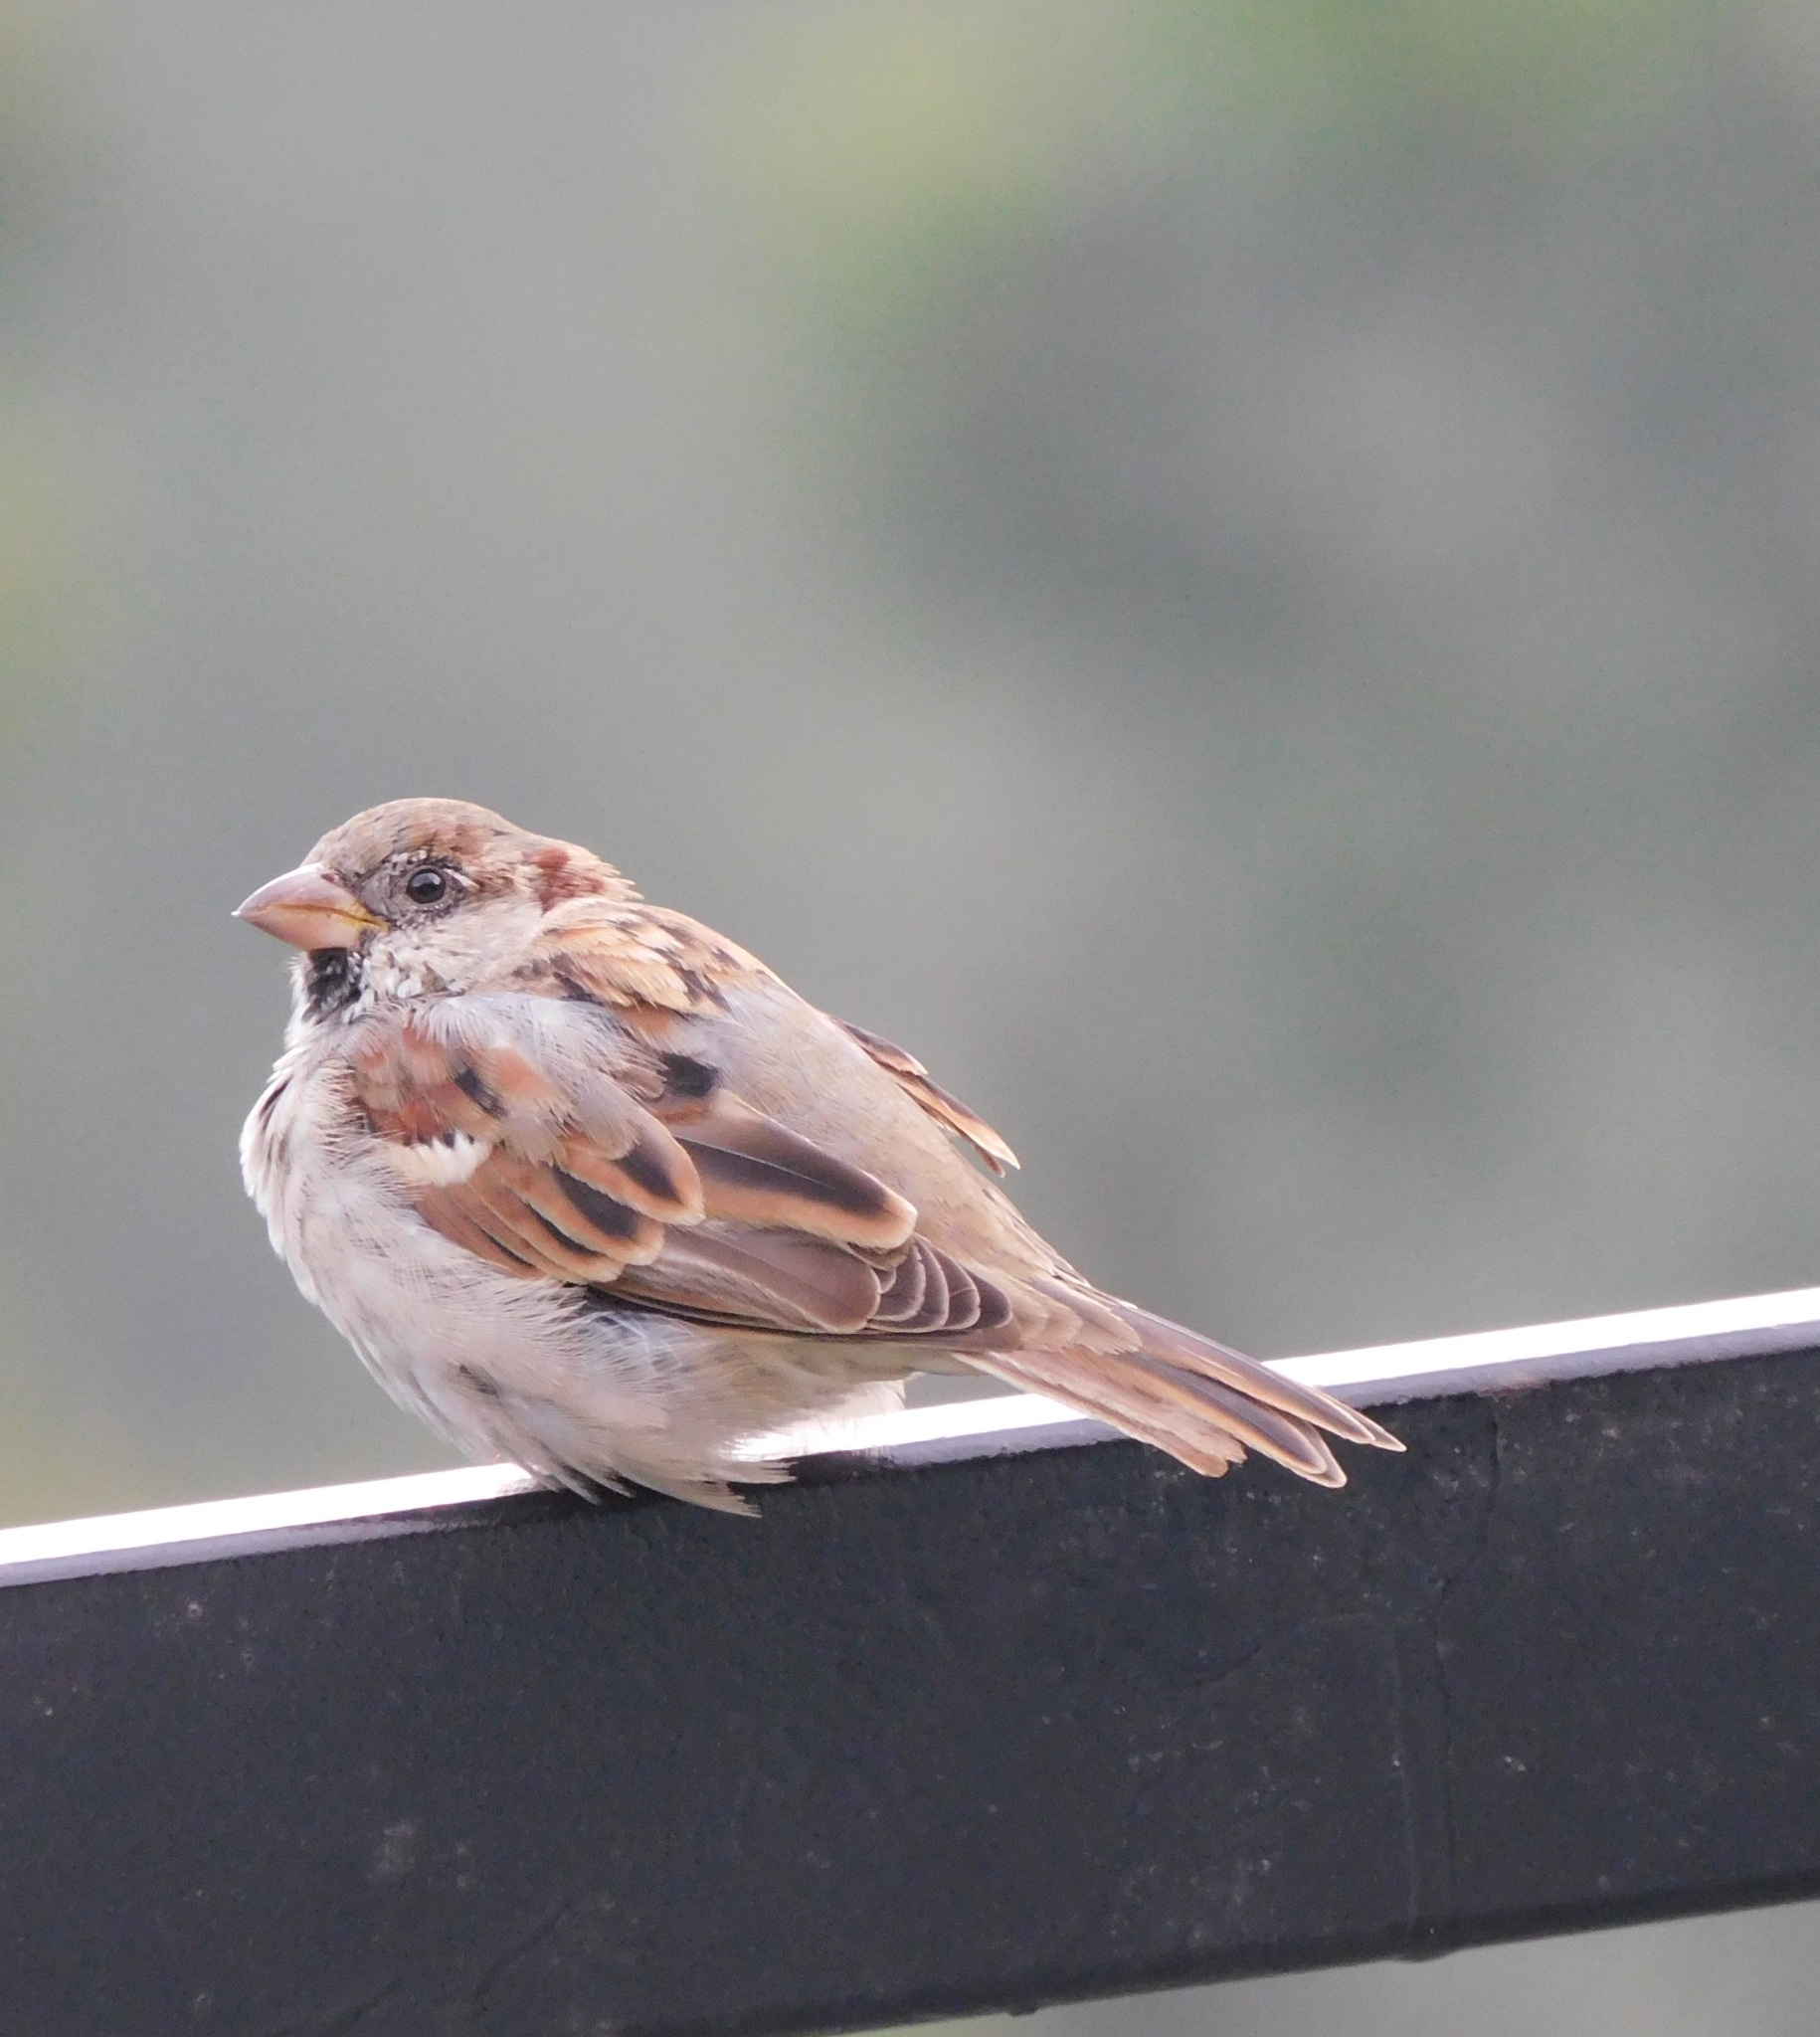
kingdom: Animalia
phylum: Chordata
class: Aves
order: Passeriformes
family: Passeridae
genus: Passer
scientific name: Passer domesticus
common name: House sparrow
